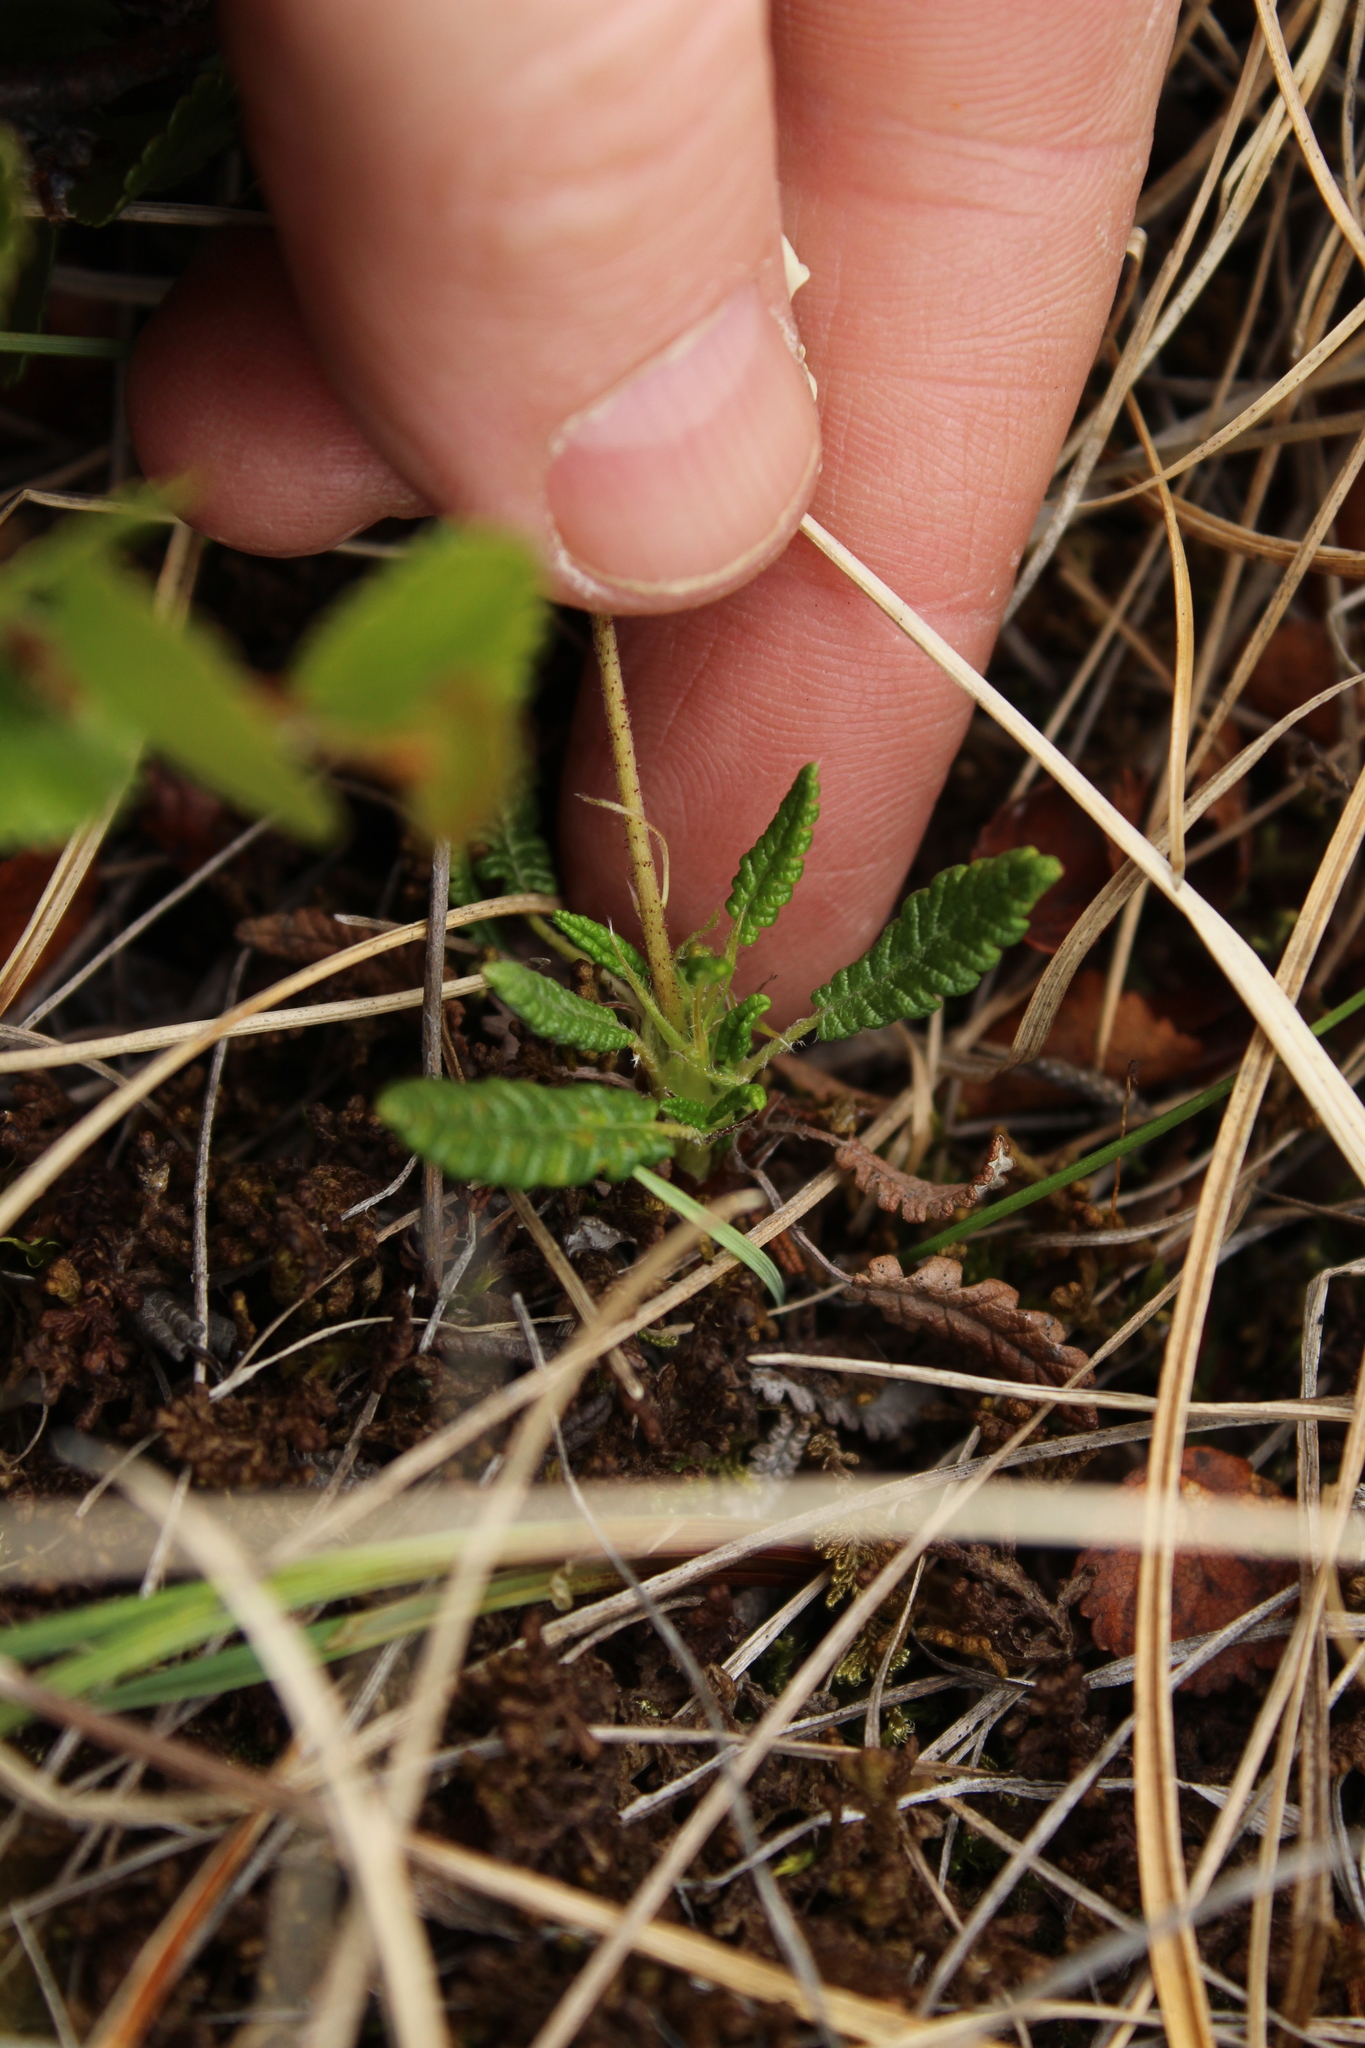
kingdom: Plantae
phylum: Tracheophyta
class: Magnoliopsida
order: Rosales
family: Rosaceae
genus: Dryas
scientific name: Dryas octopetala
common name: Eight-petal mountain-avens
